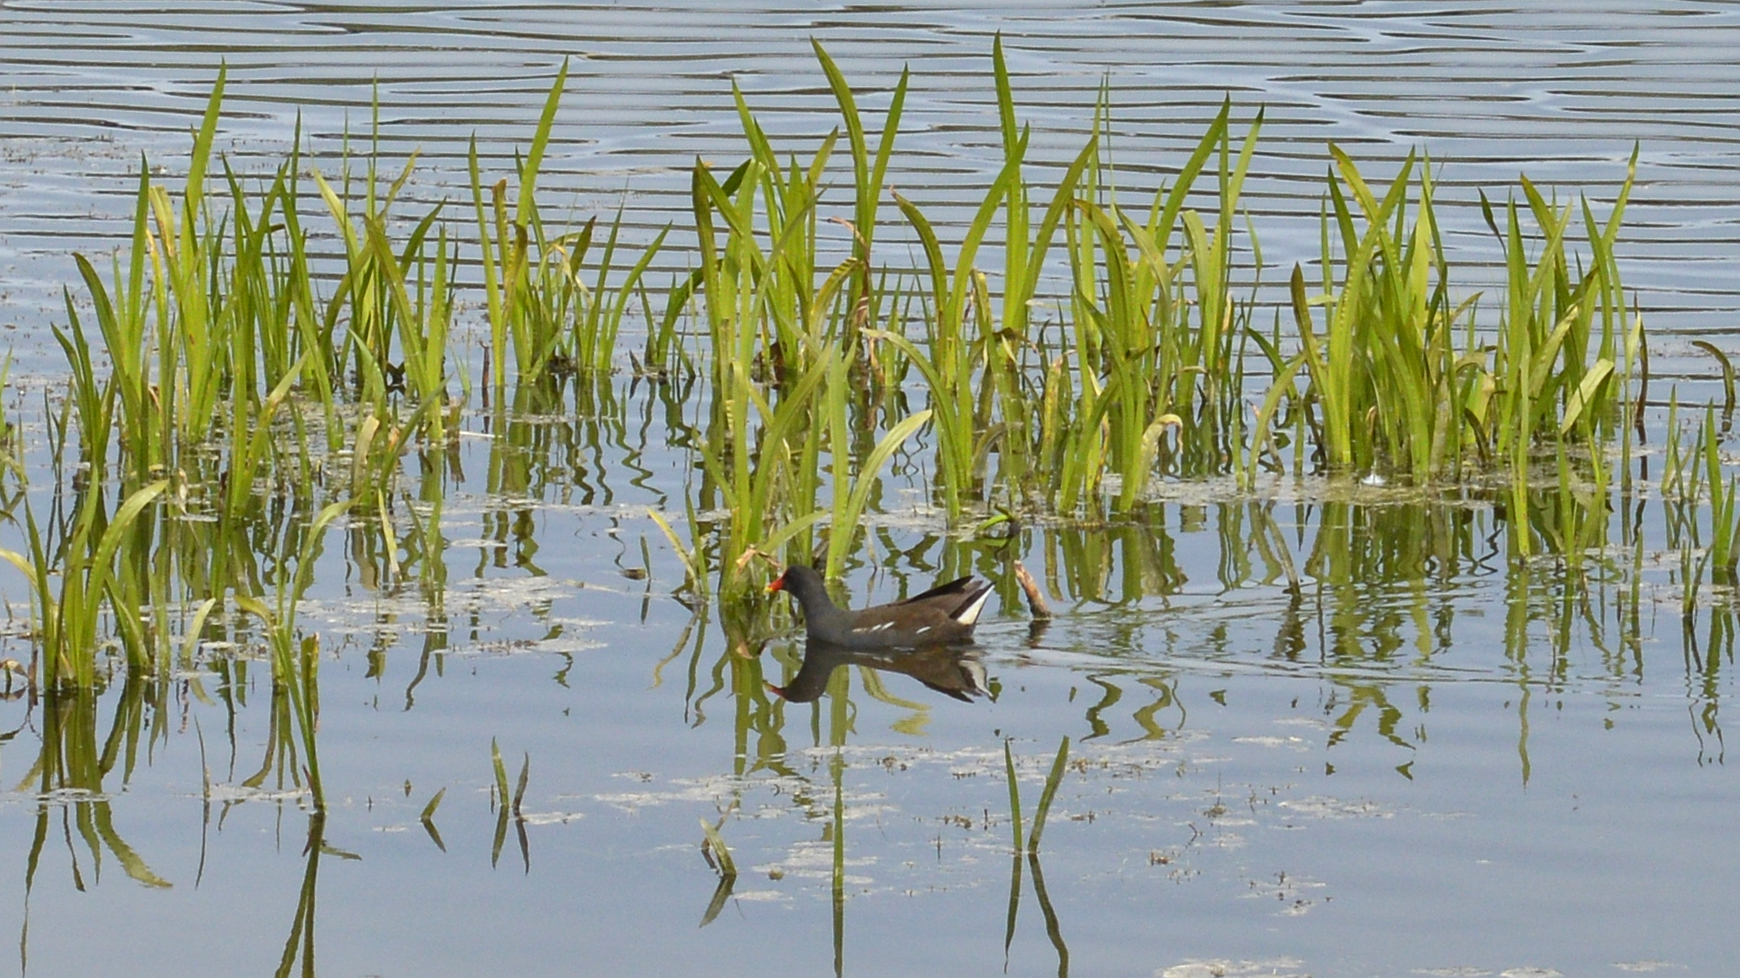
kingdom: Animalia
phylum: Chordata
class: Aves
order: Gruiformes
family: Rallidae
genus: Gallinula
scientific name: Gallinula chloropus
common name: Common moorhen
